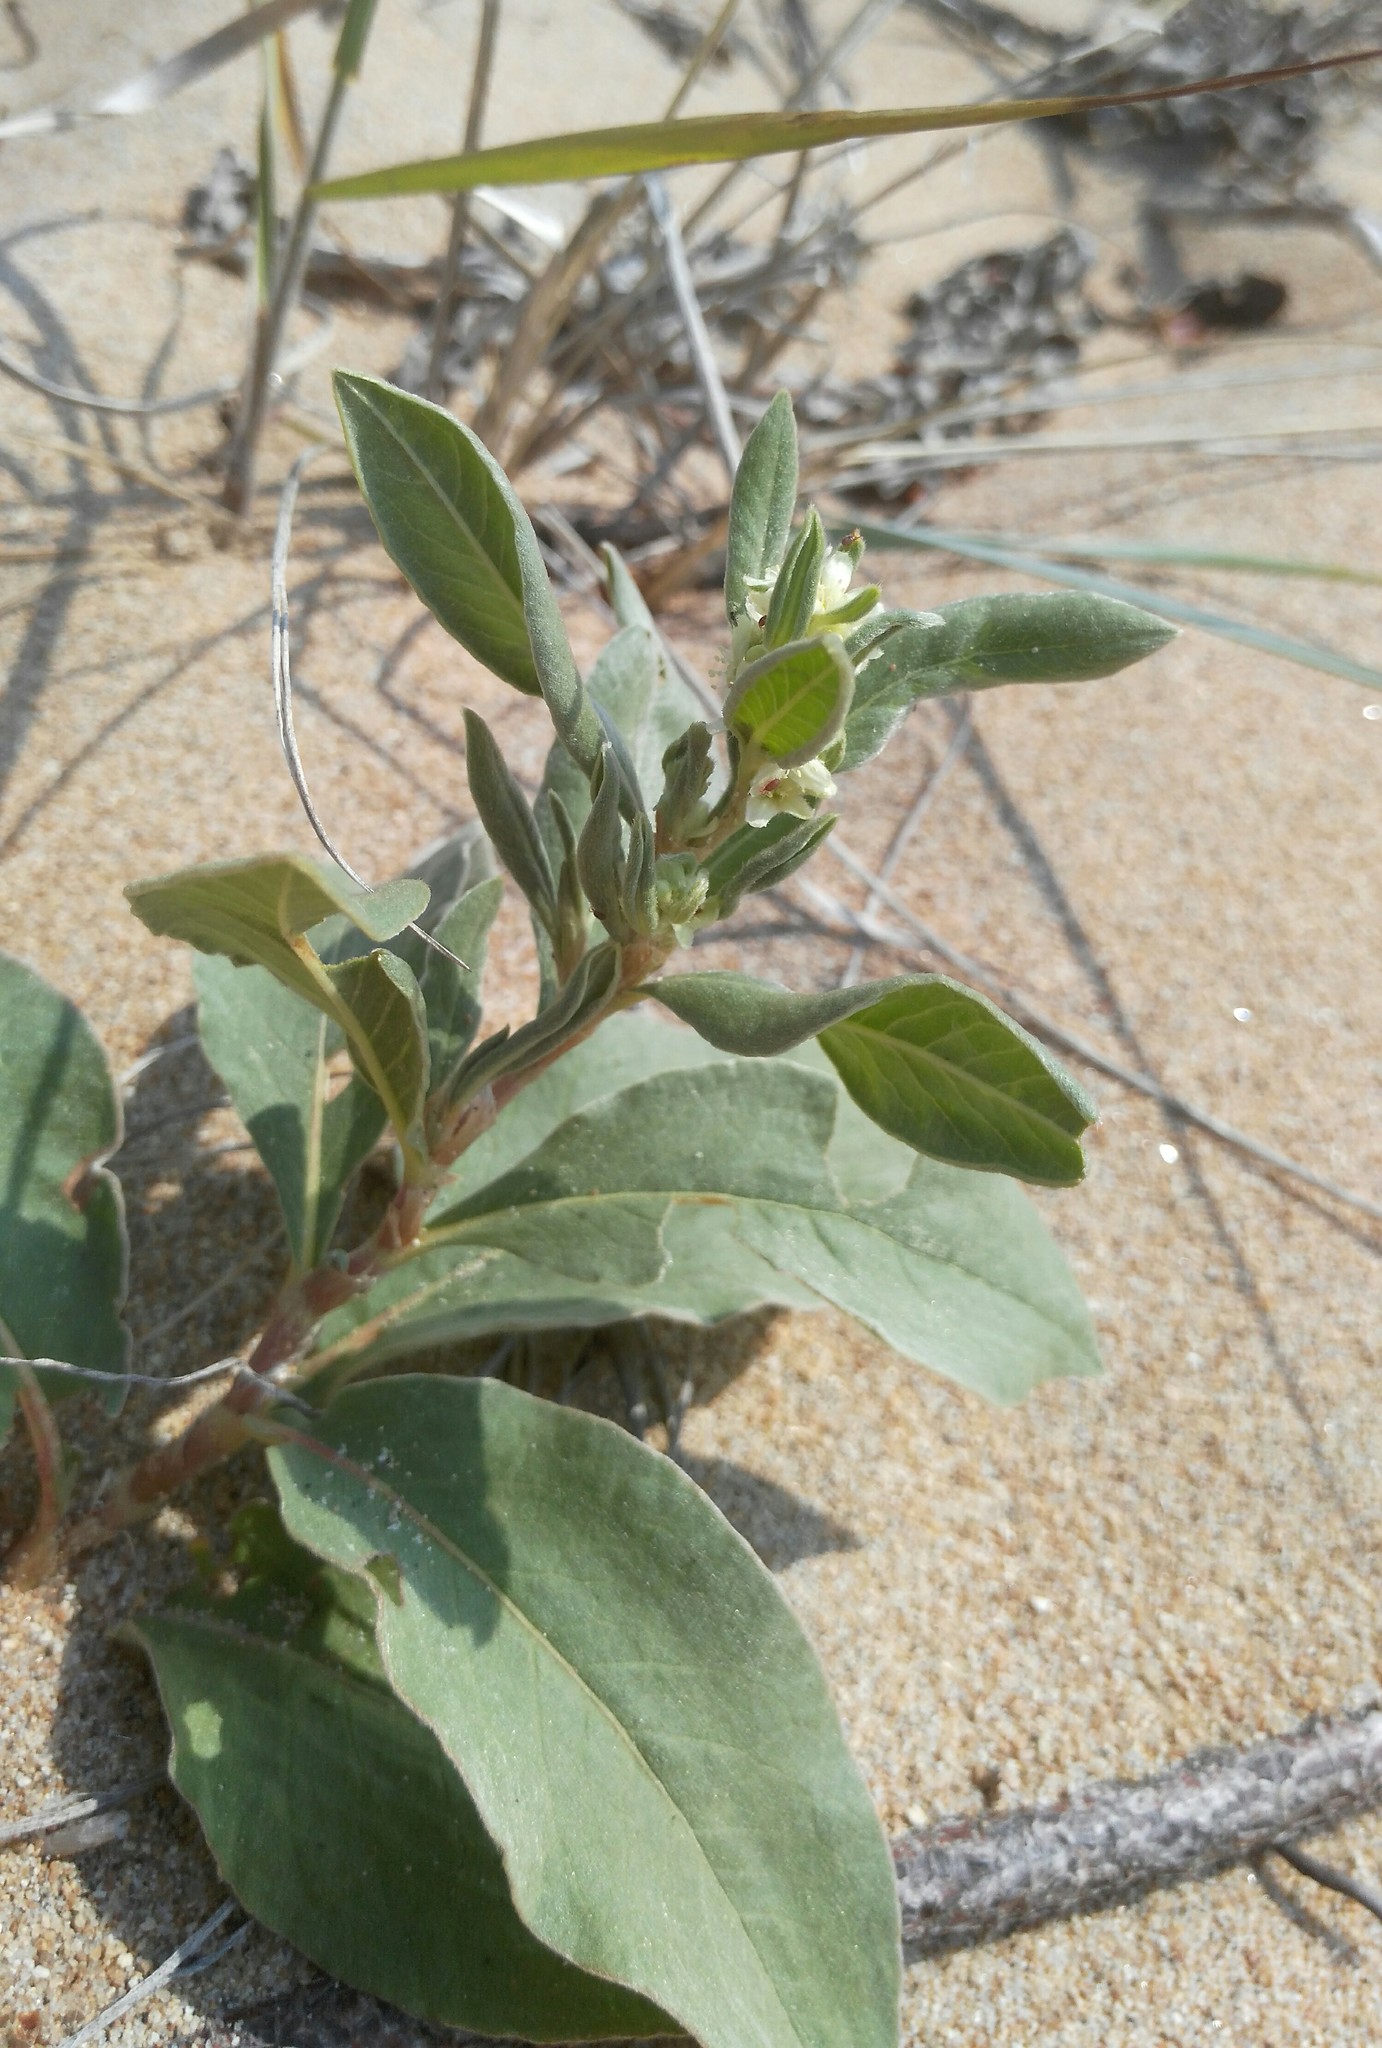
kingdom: Plantae
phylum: Tracheophyta
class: Magnoliopsida
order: Caryophyllales
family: Polygonaceae
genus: Polygonum
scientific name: Polygonum sericeum
